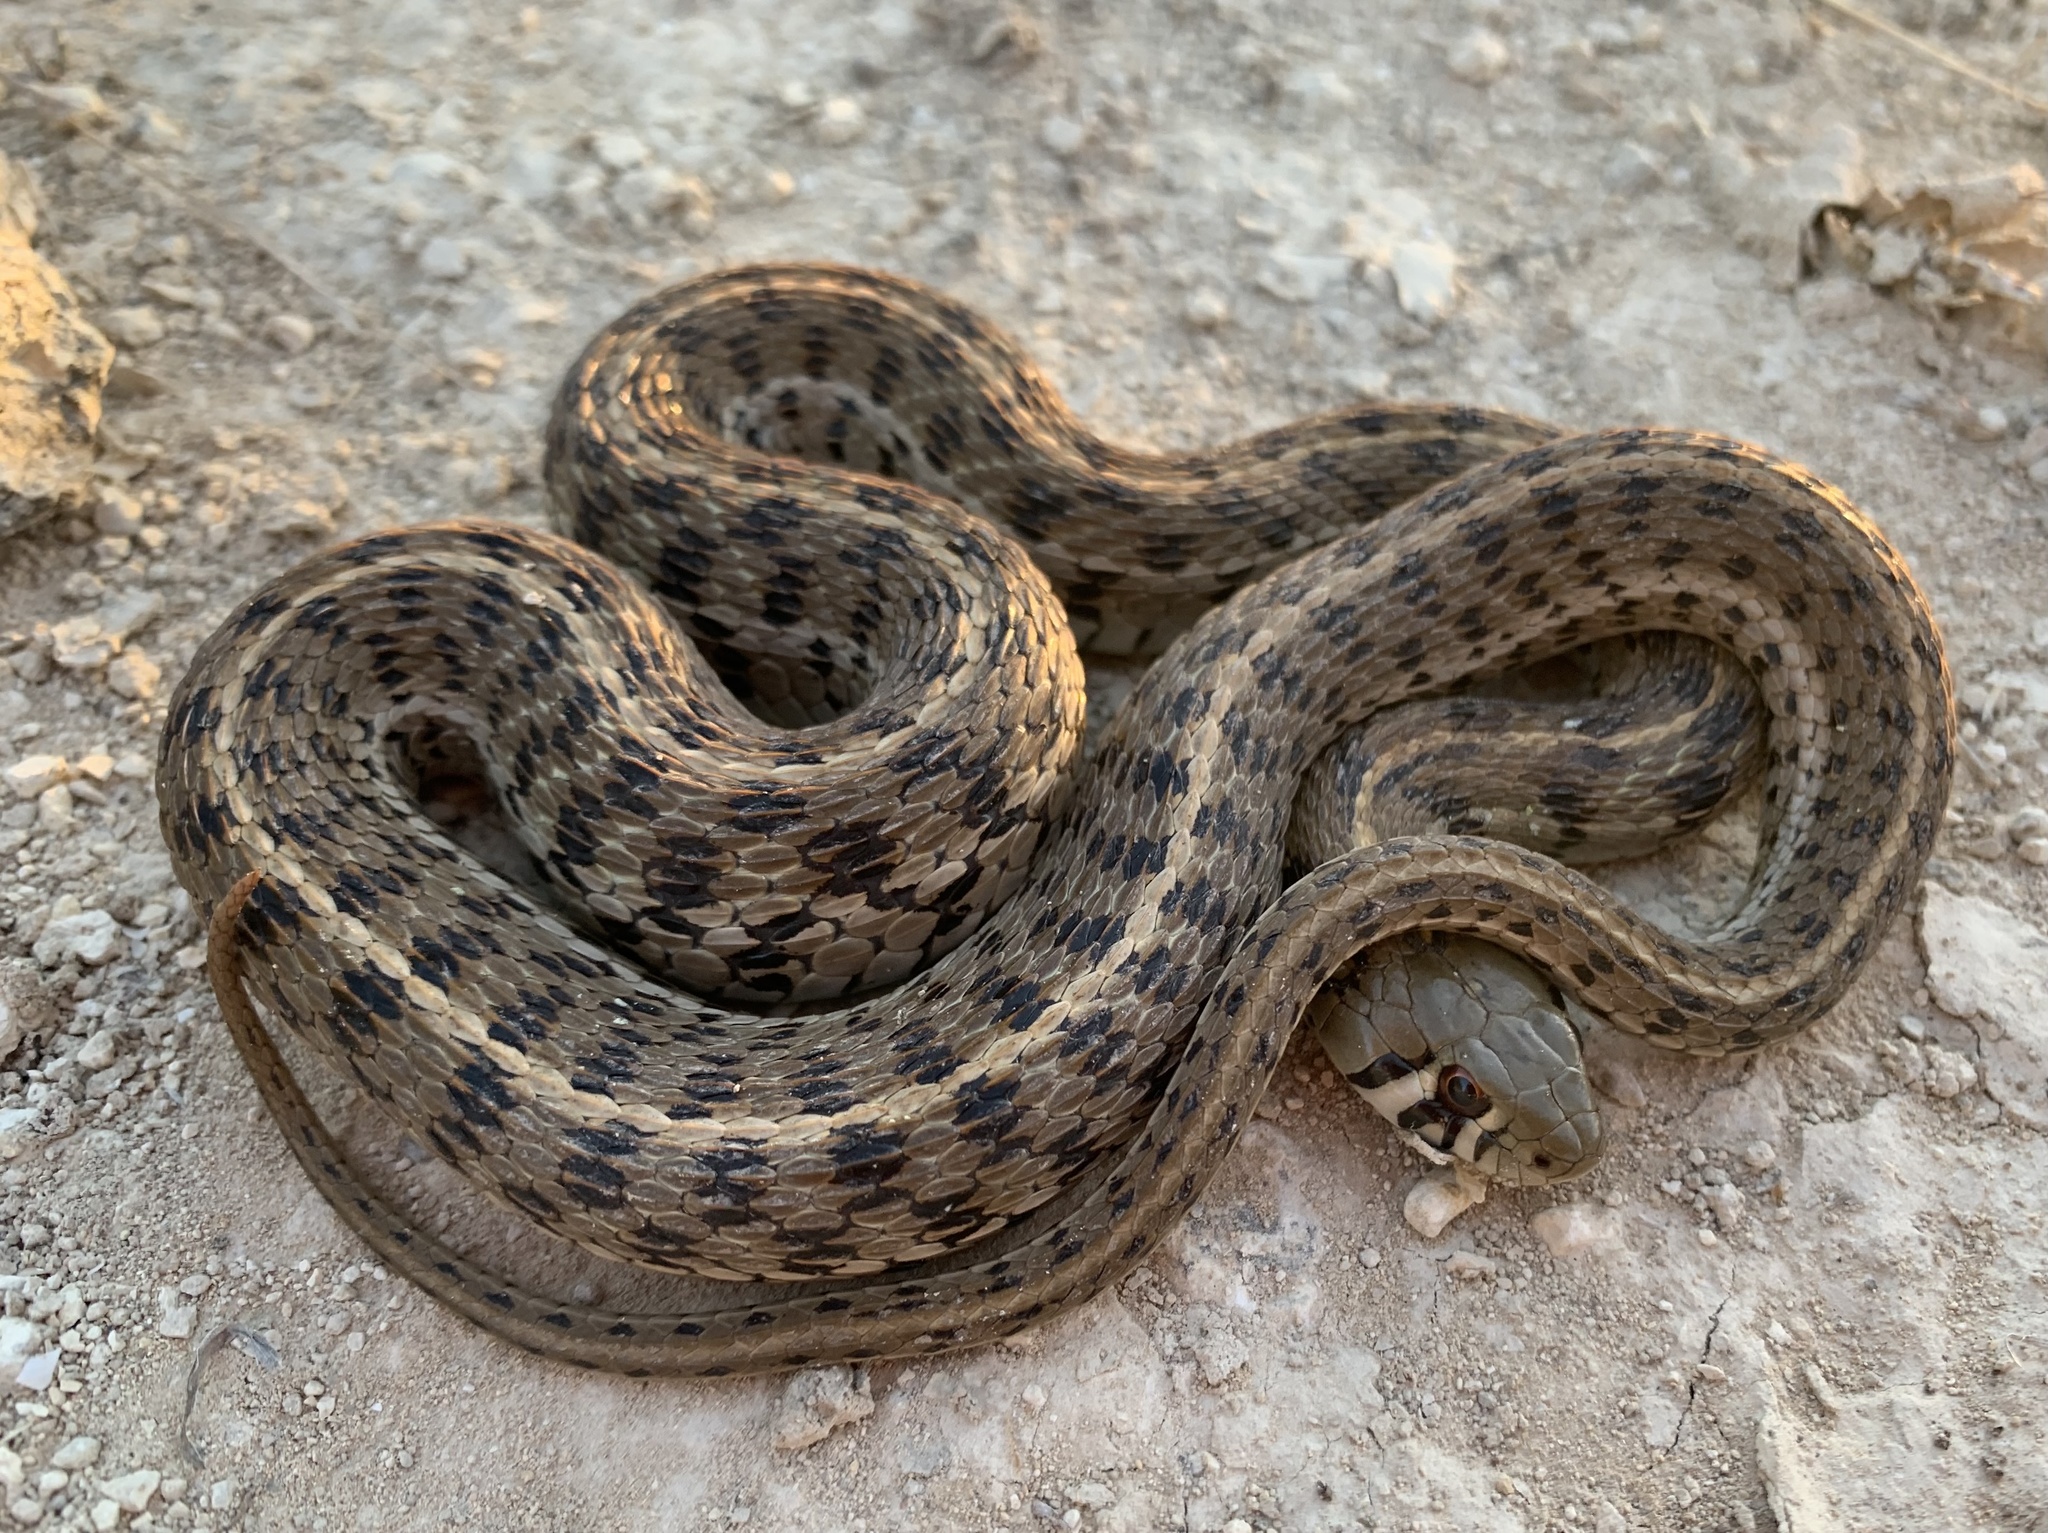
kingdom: Animalia
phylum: Chordata
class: Squamata
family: Colubridae
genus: Thamnophis
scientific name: Thamnophis marcianus
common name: Checkered garter snake
